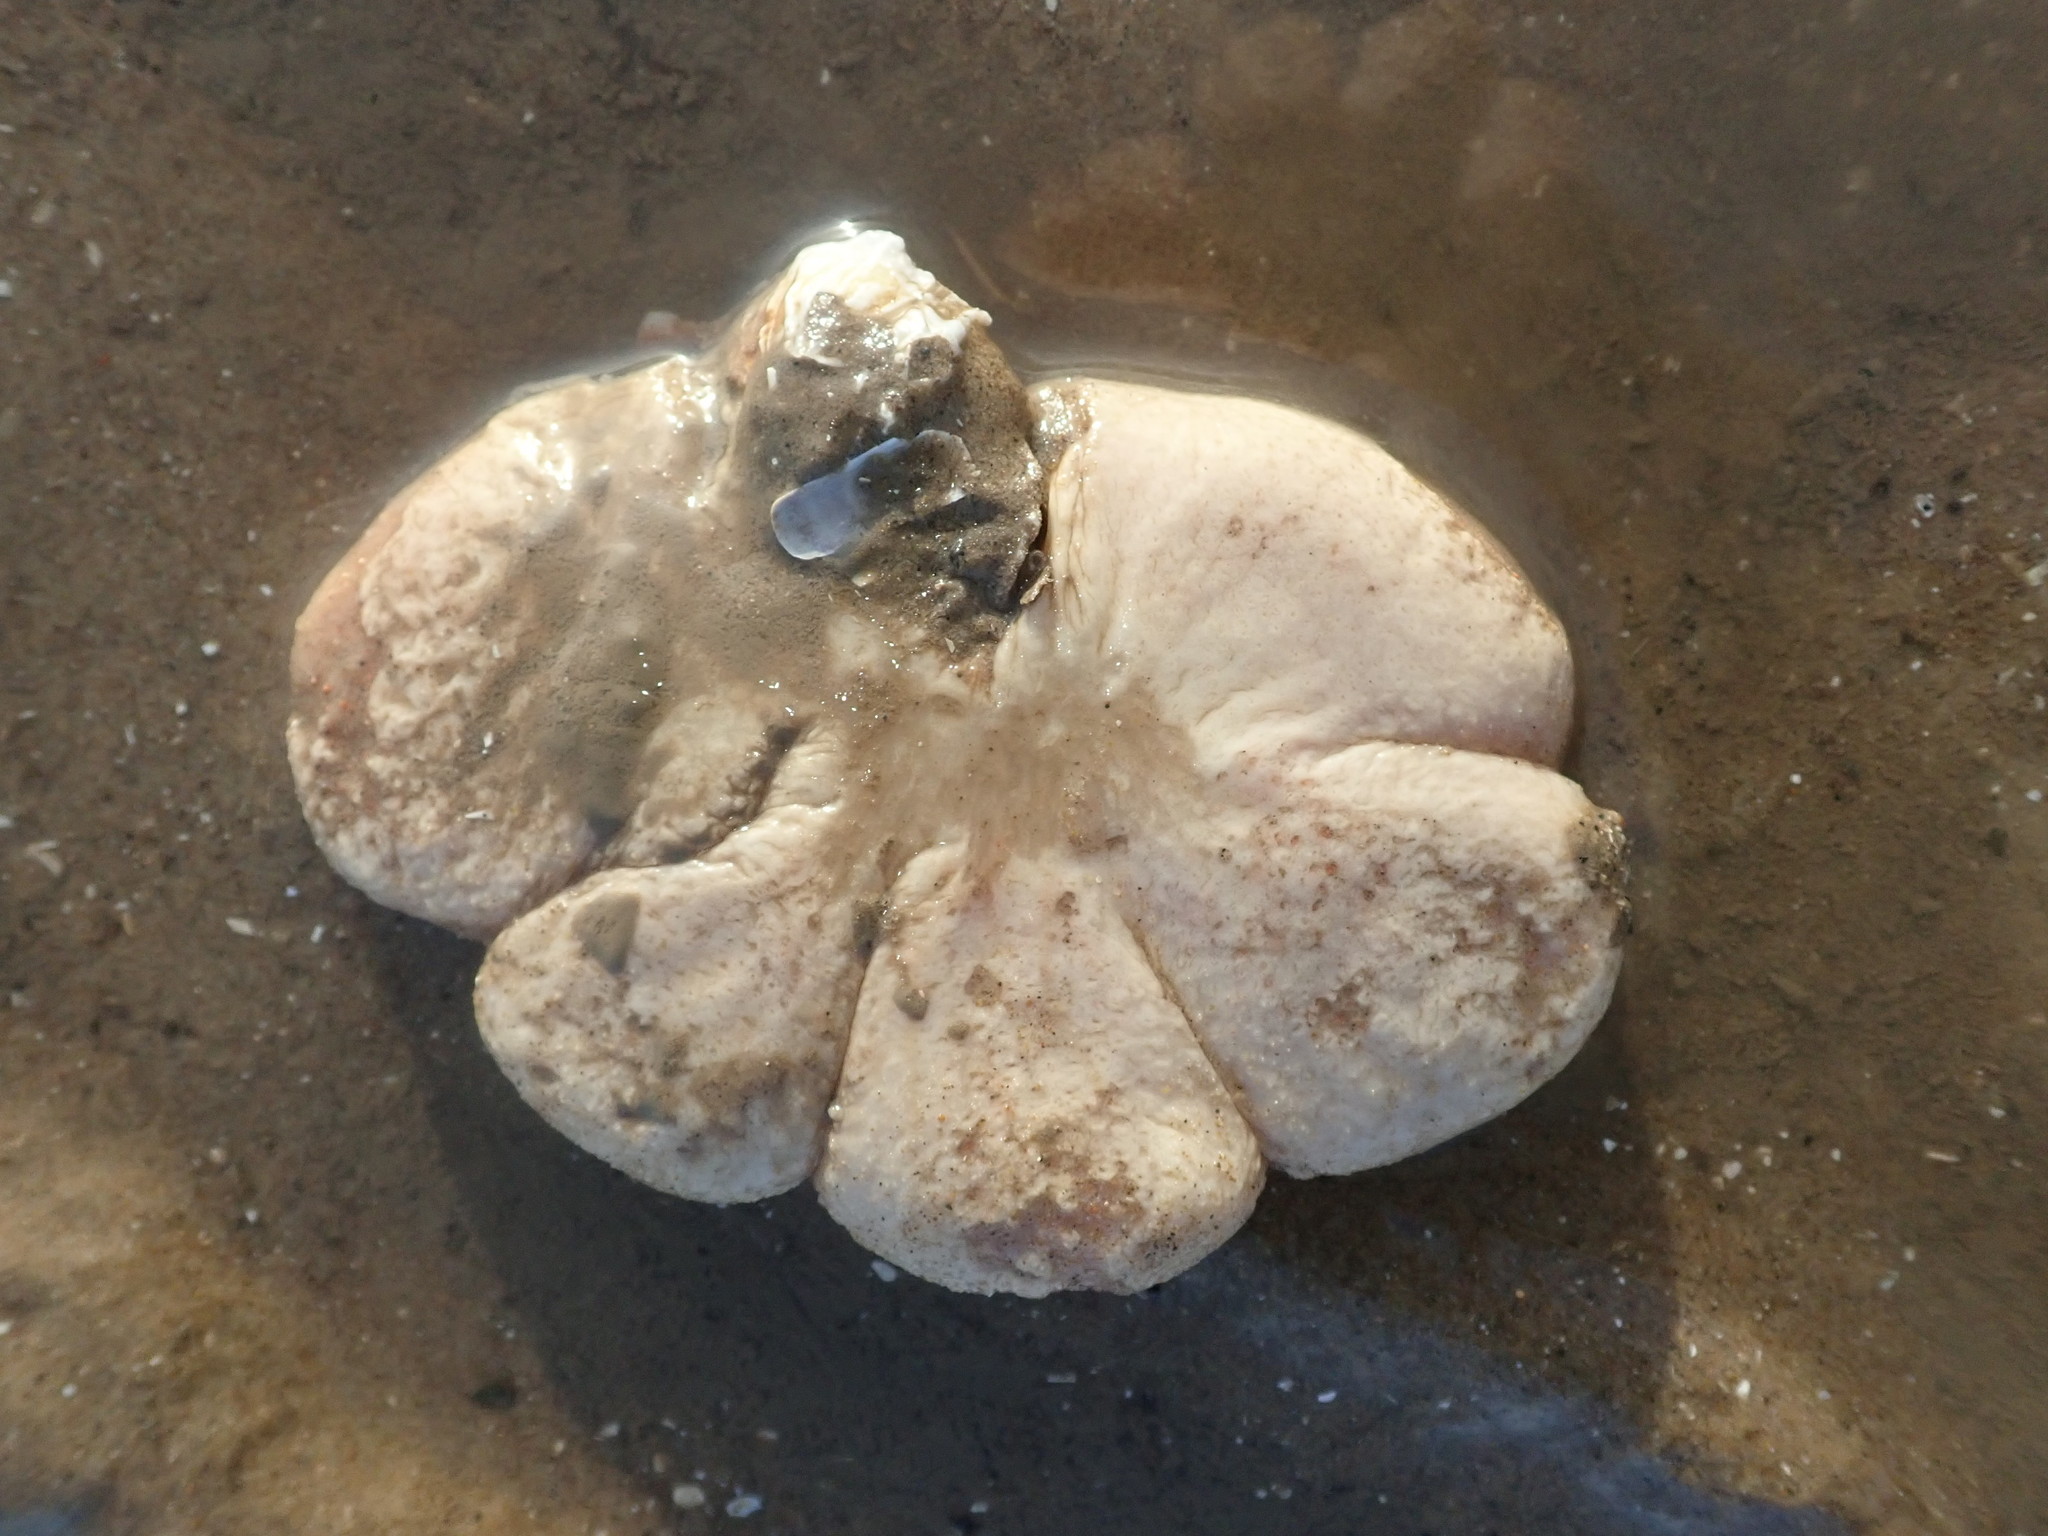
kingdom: Animalia
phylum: Cnidaria
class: Anthozoa
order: Malacalcyonacea
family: Alcyoniidae
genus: Alcyonium
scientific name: Alcyonium digitatum
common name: Dead man's fingers
